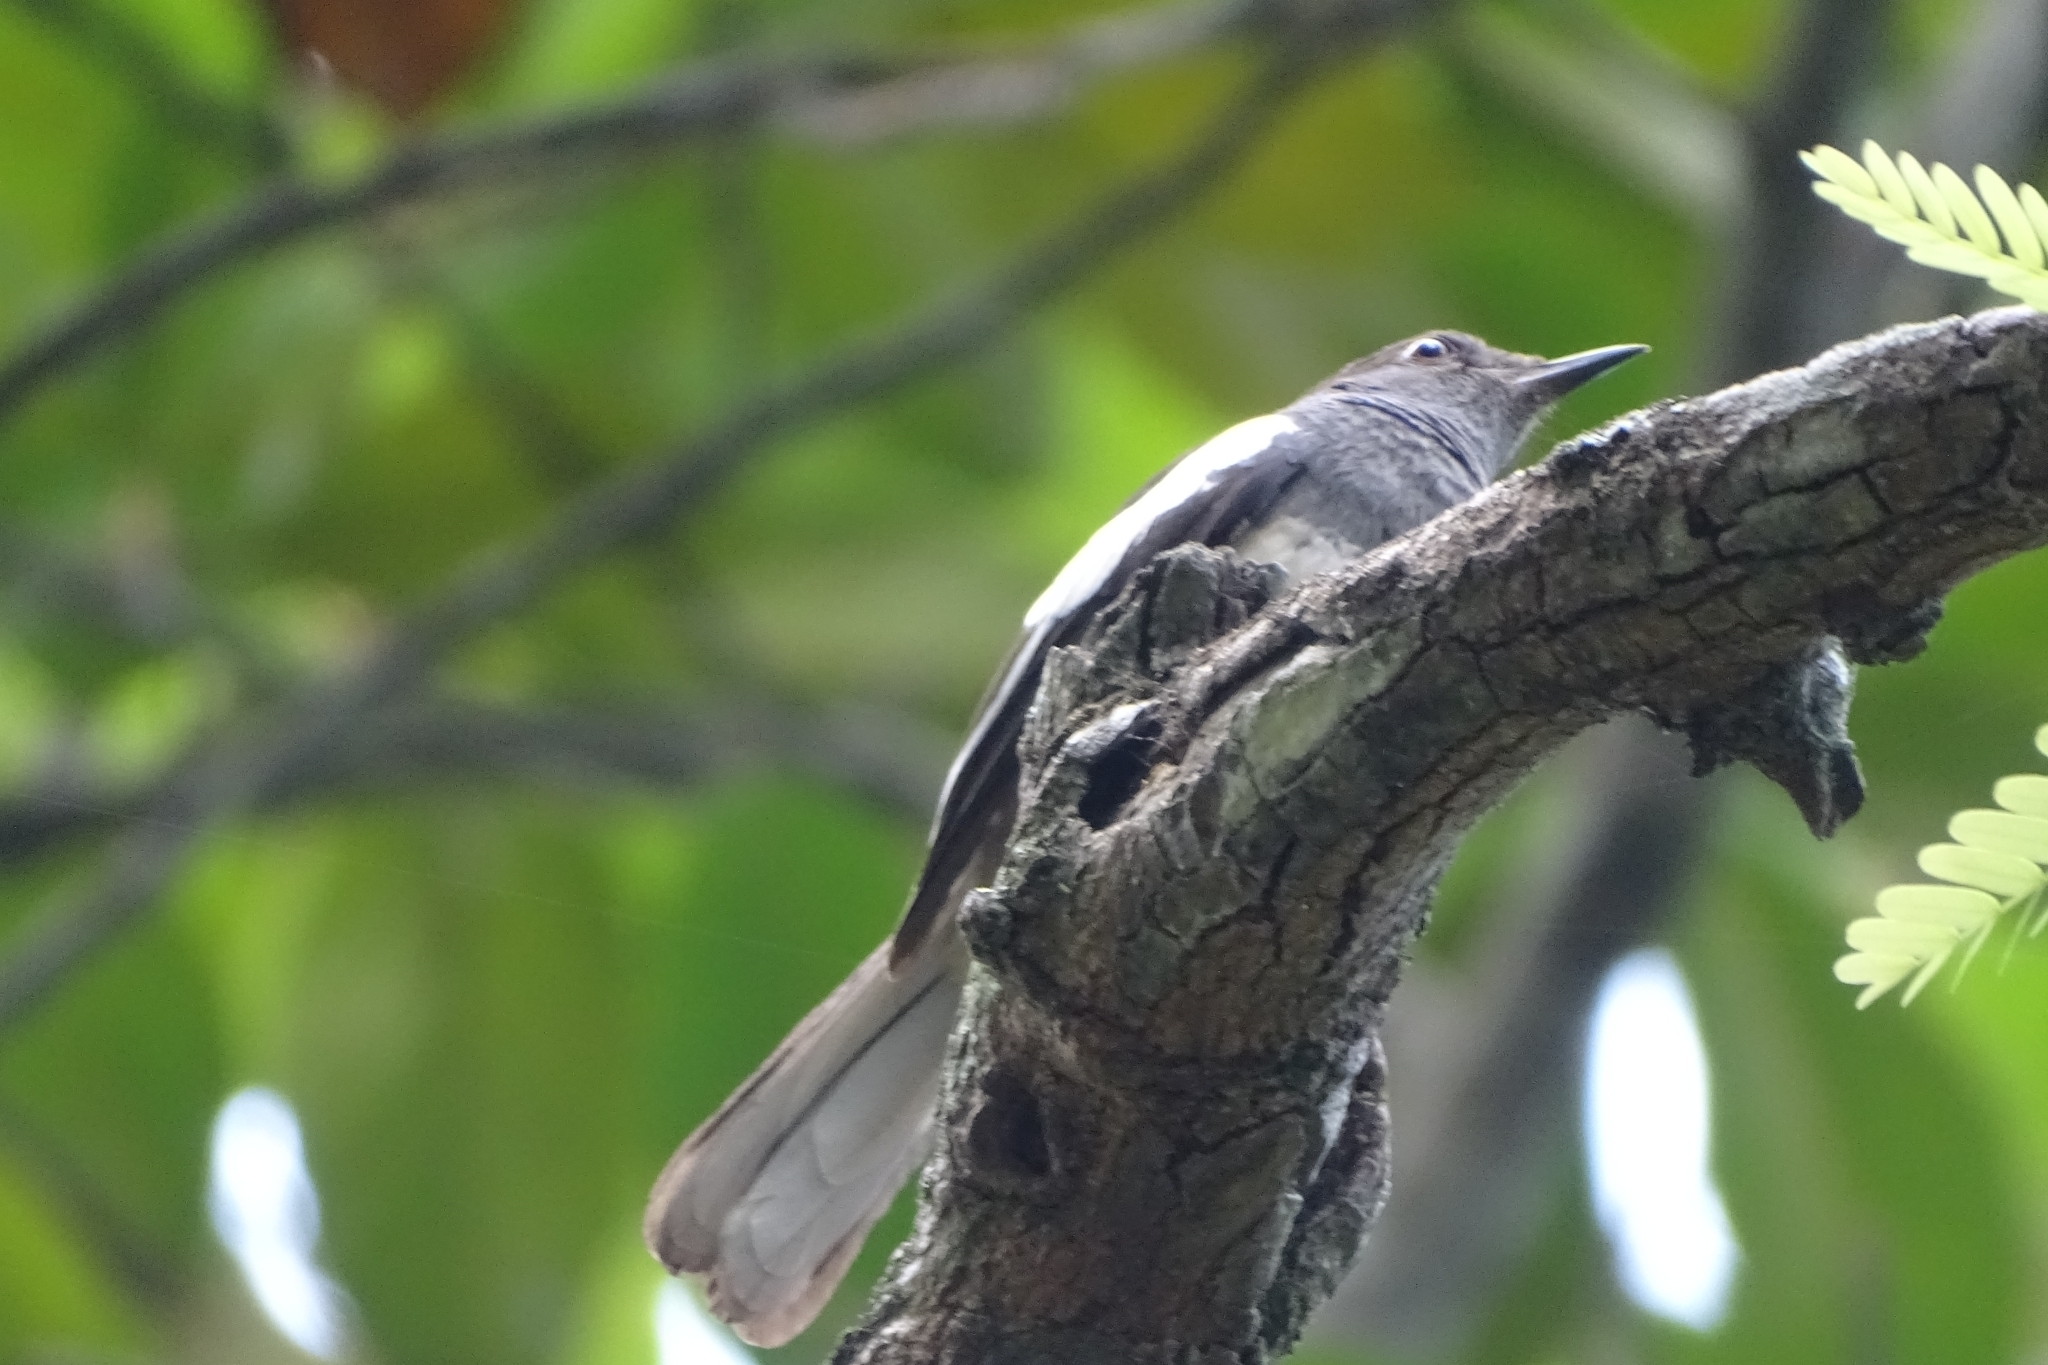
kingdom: Animalia
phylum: Chordata
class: Aves
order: Passeriformes
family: Muscicapidae
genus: Copsychus
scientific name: Copsychus saularis
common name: Oriental magpie-robin
